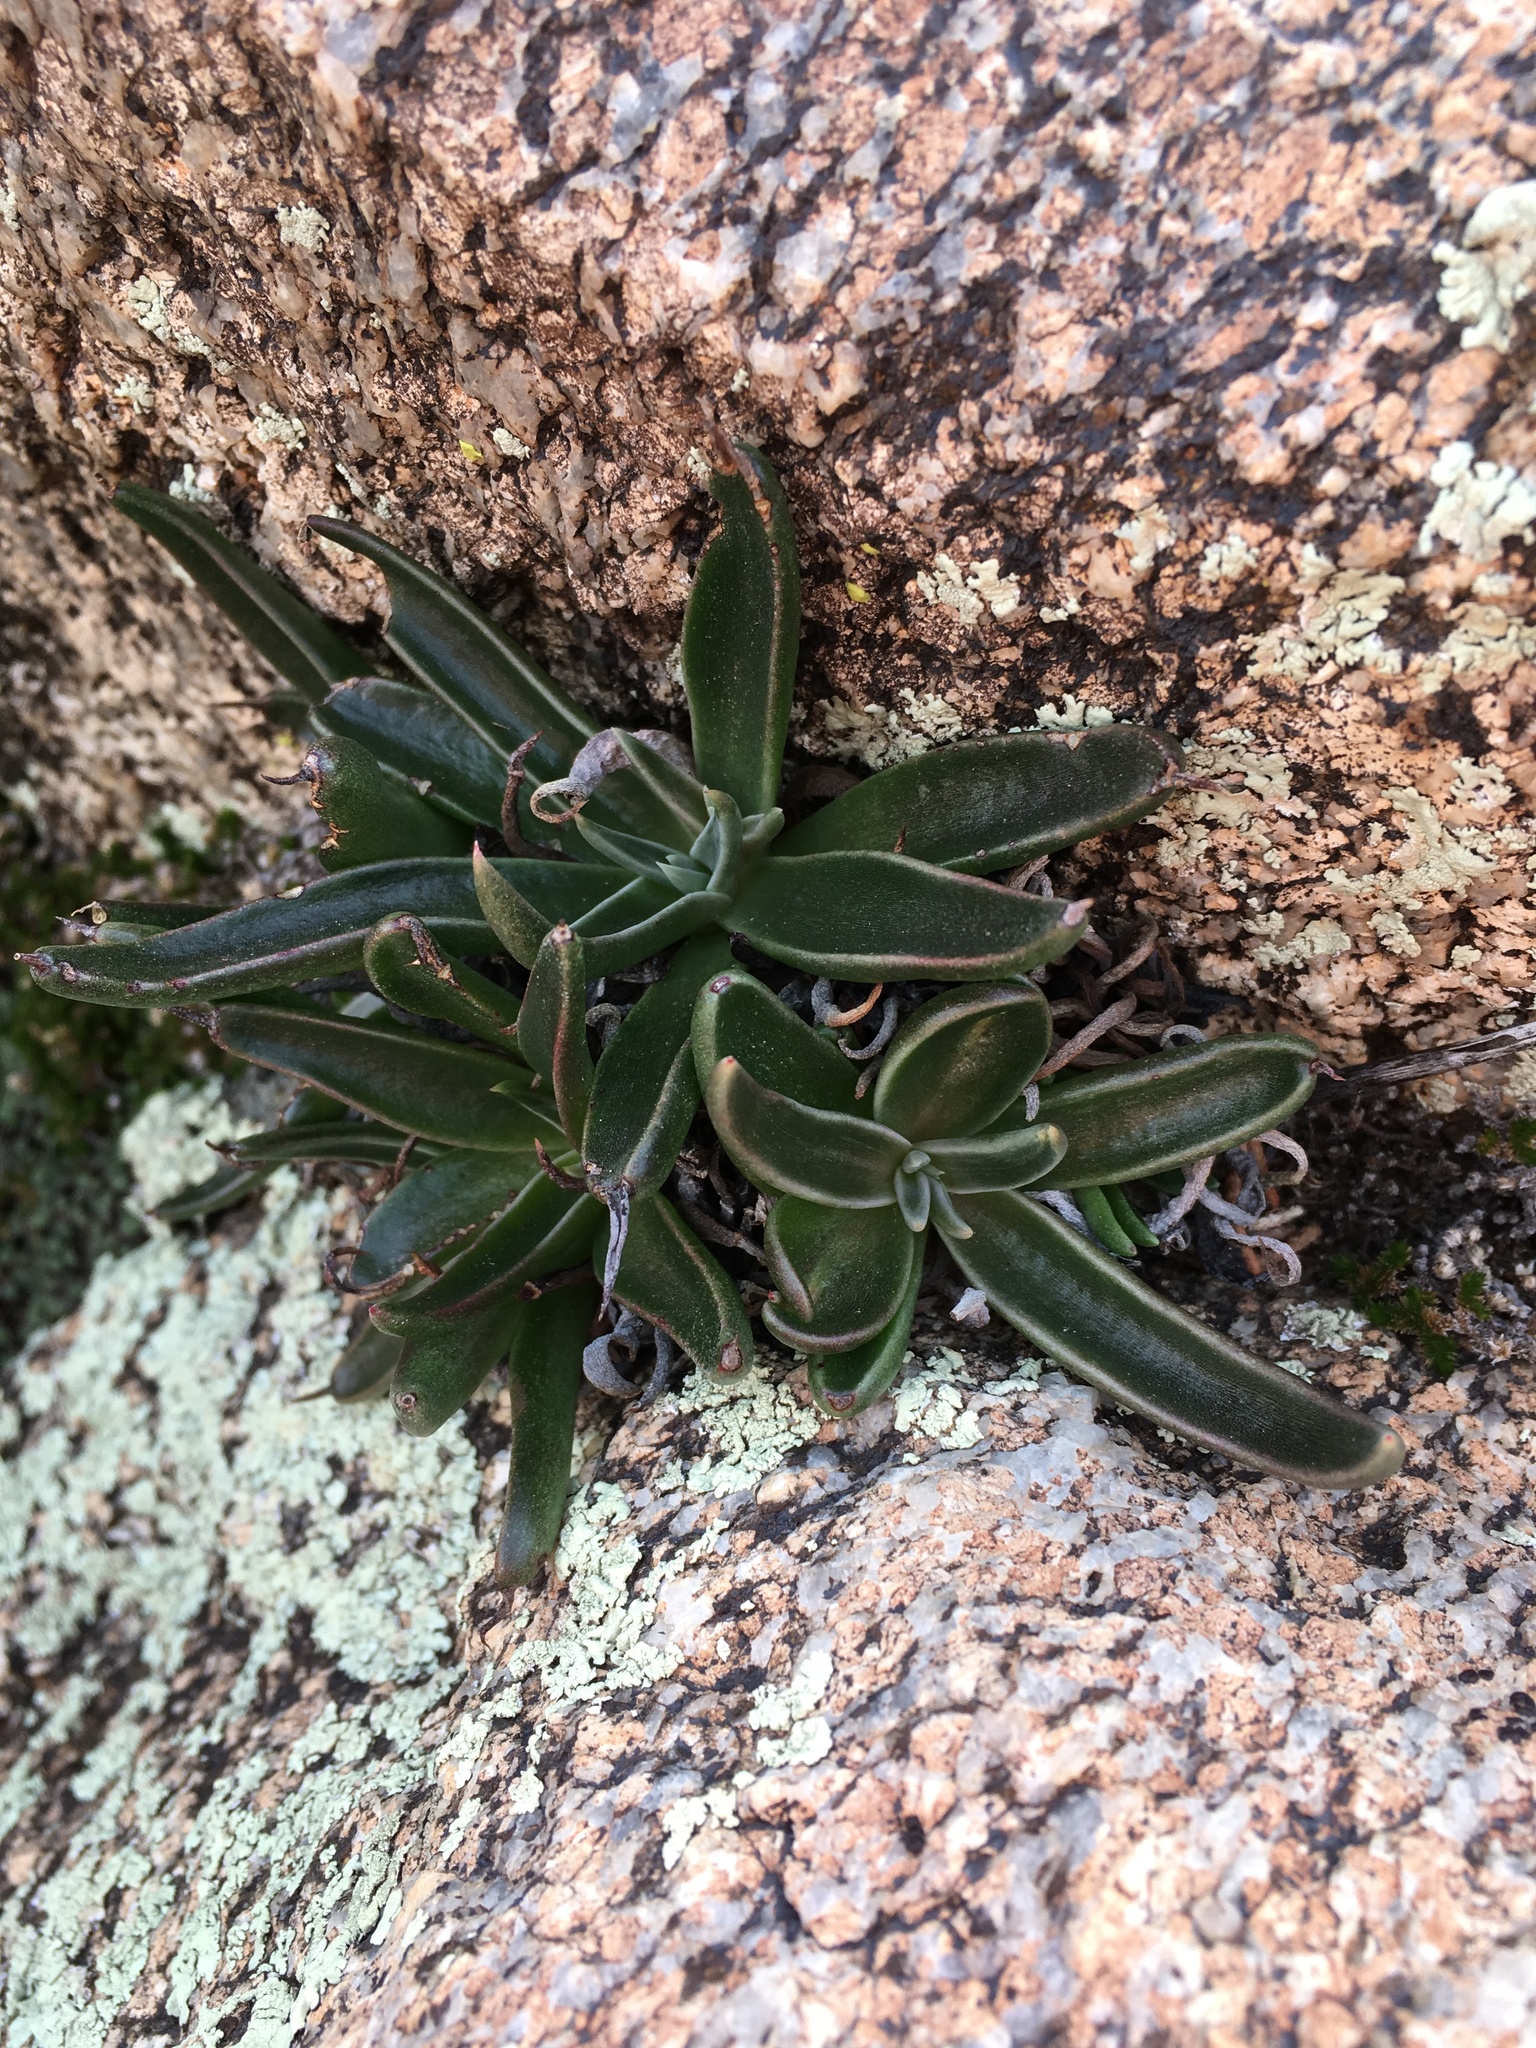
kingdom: Plantae
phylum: Tracheophyta
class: Magnoliopsida
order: Saxifragales
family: Crassulaceae
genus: Dudleya
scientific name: Dudleya saxosa
